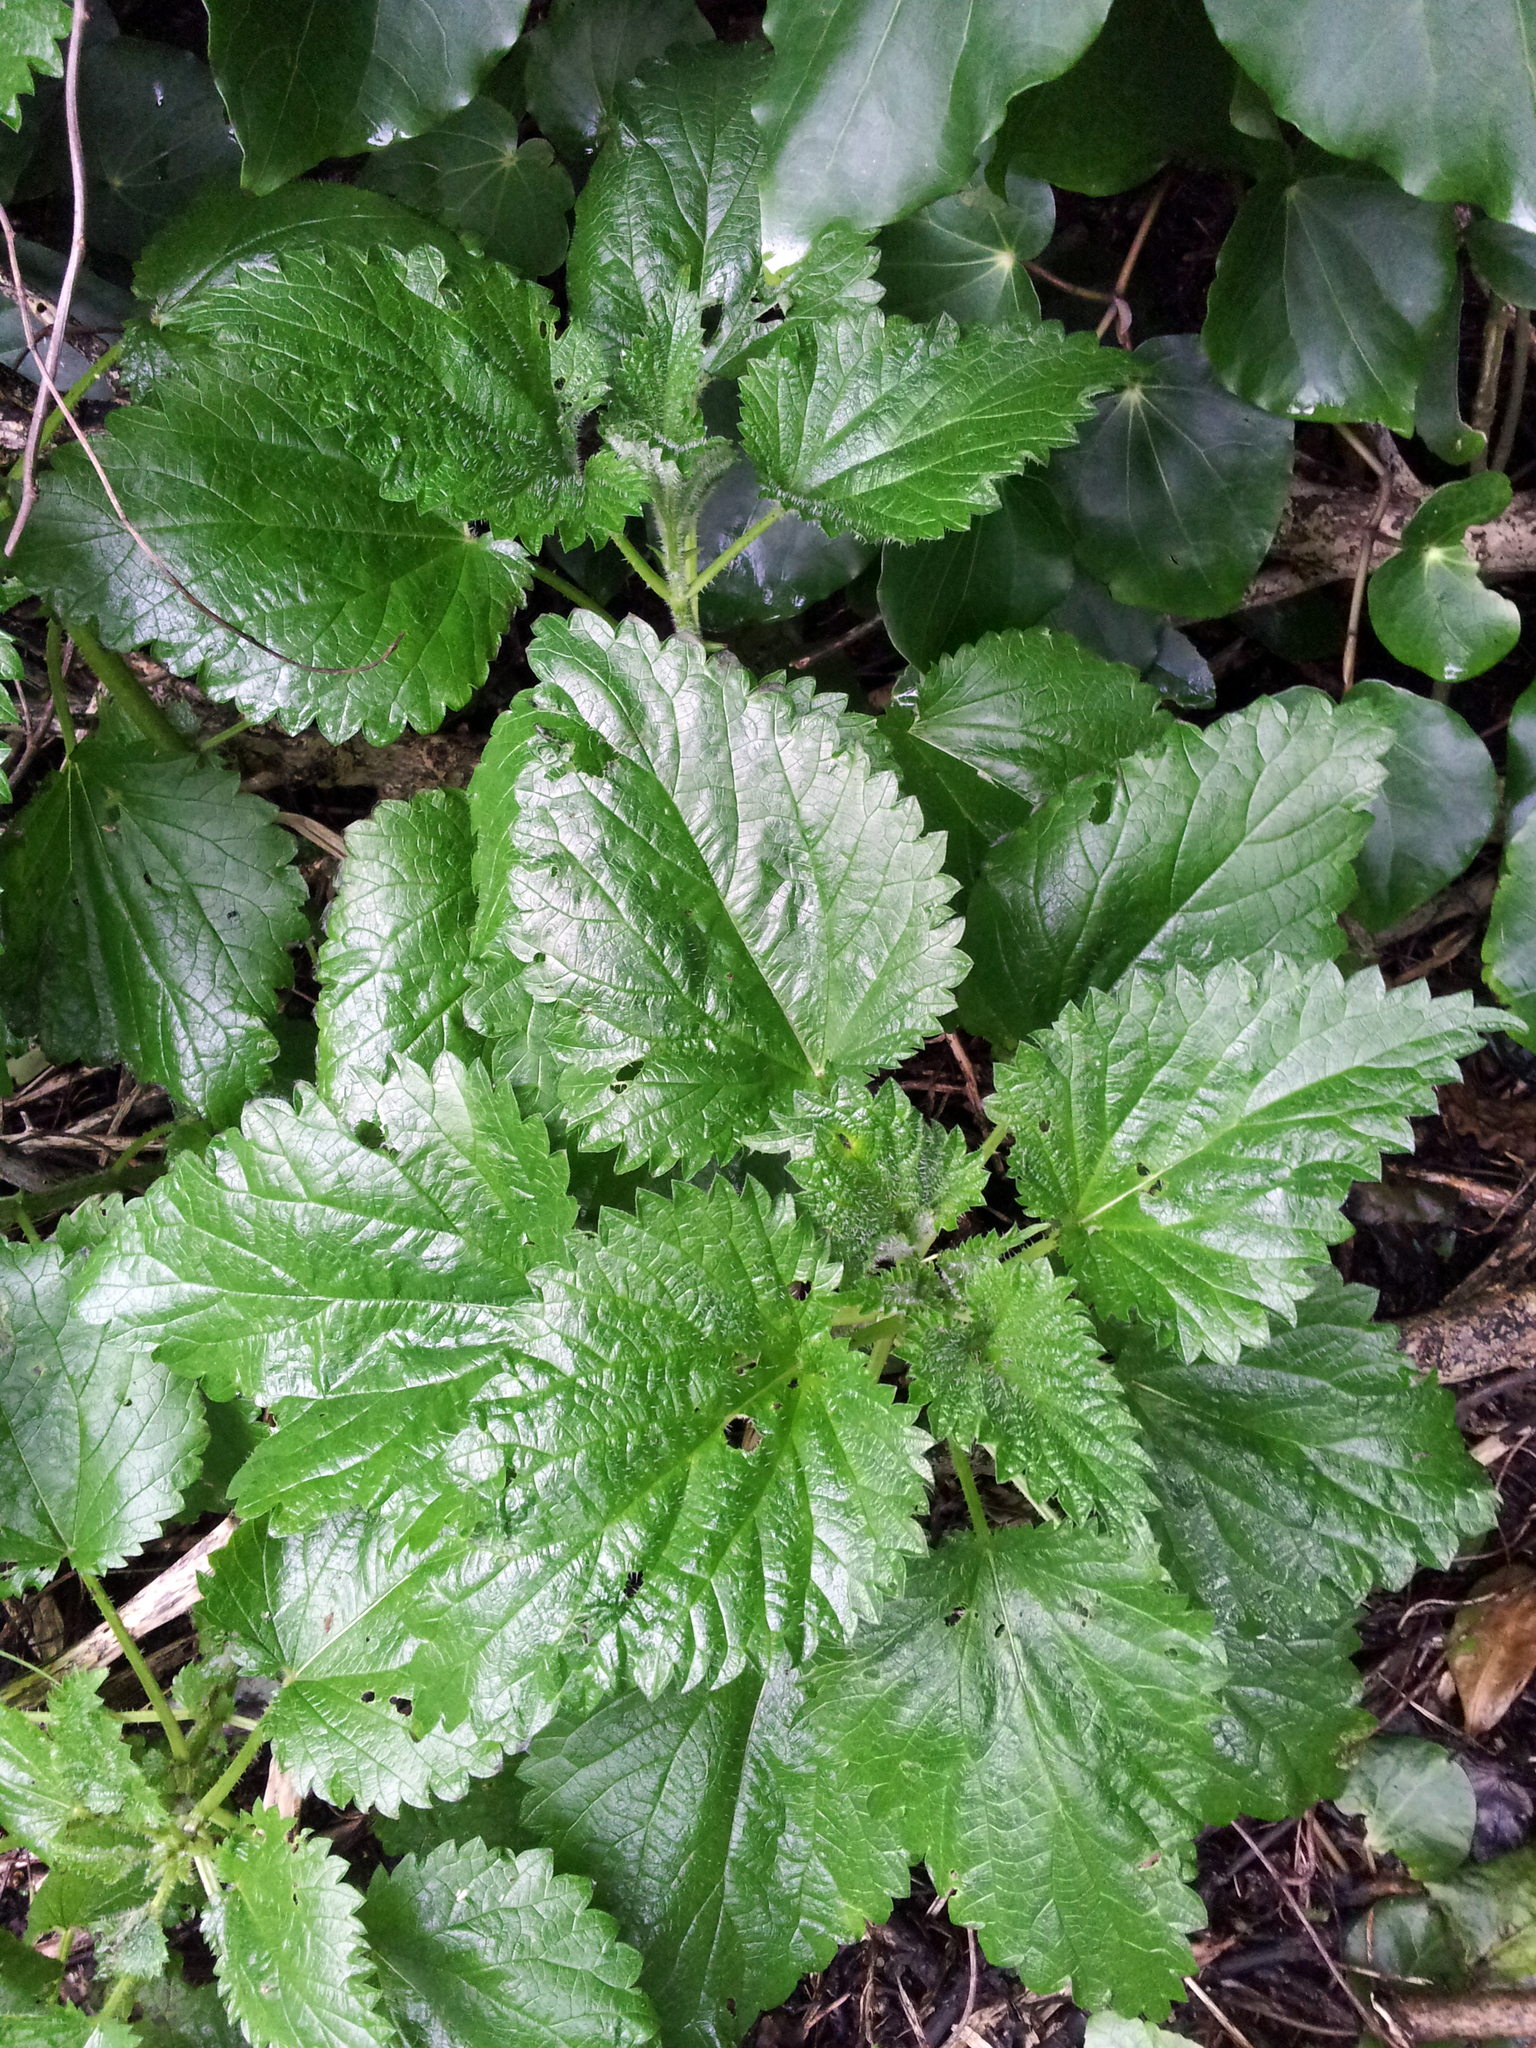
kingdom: Plantae
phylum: Tracheophyta
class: Magnoliopsida
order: Rosales
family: Urticaceae
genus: Urtica
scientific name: Urtica australis
